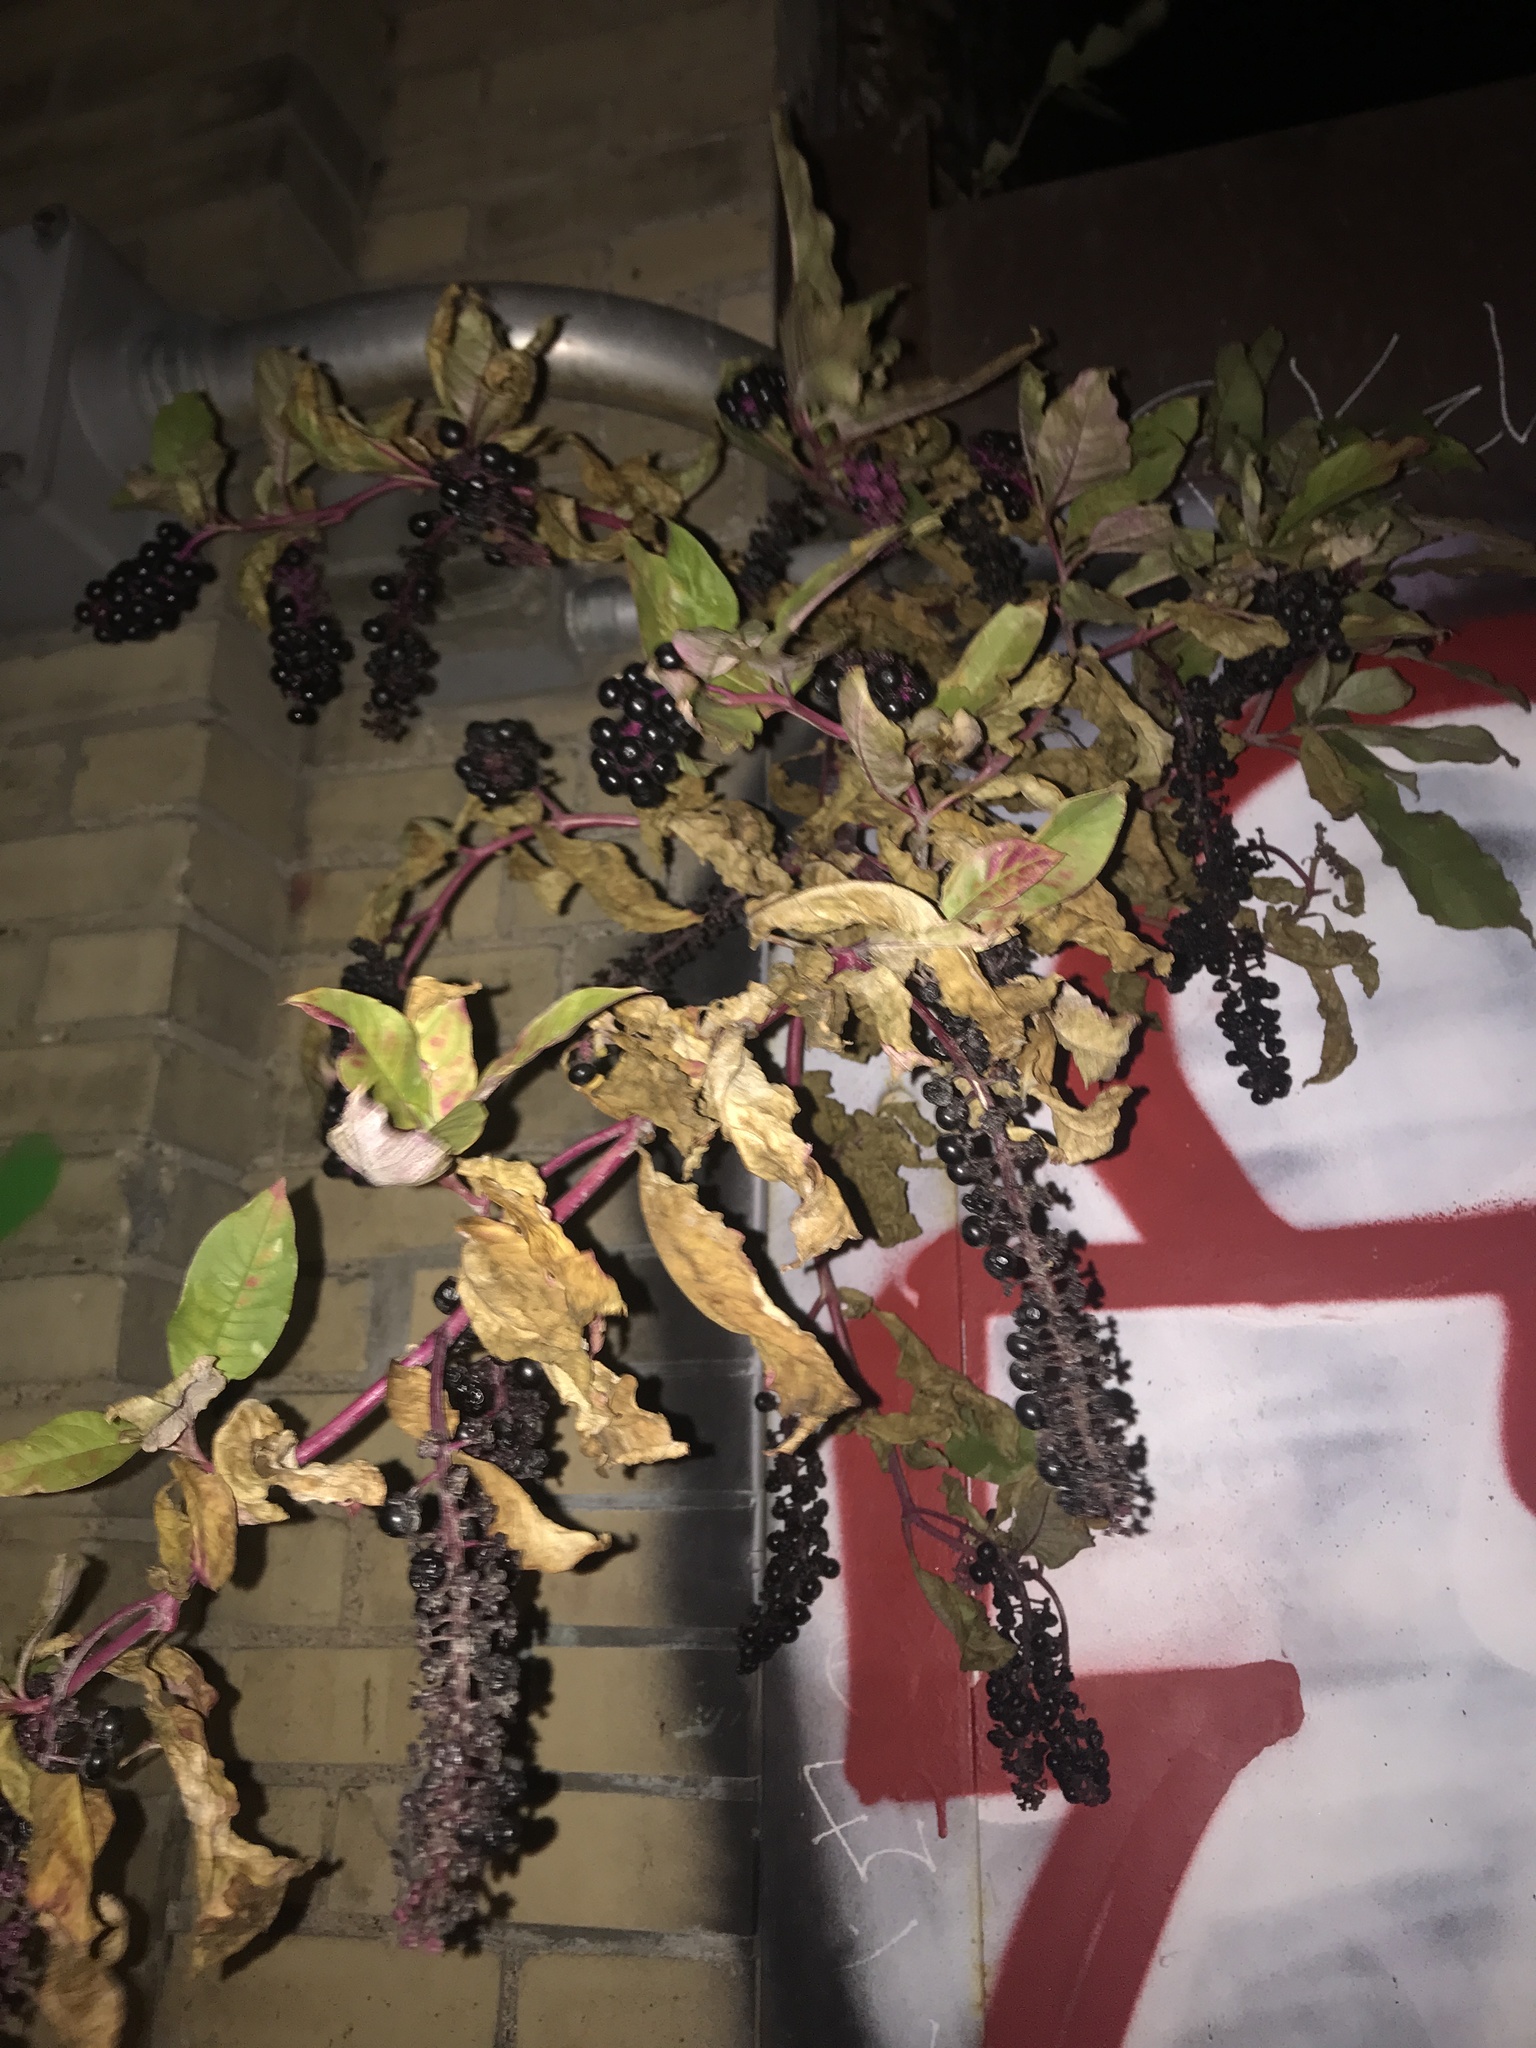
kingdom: Plantae
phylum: Tracheophyta
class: Magnoliopsida
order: Caryophyllales
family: Phytolaccaceae
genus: Phytolacca
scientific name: Phytolacca americana
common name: American pokeweed
